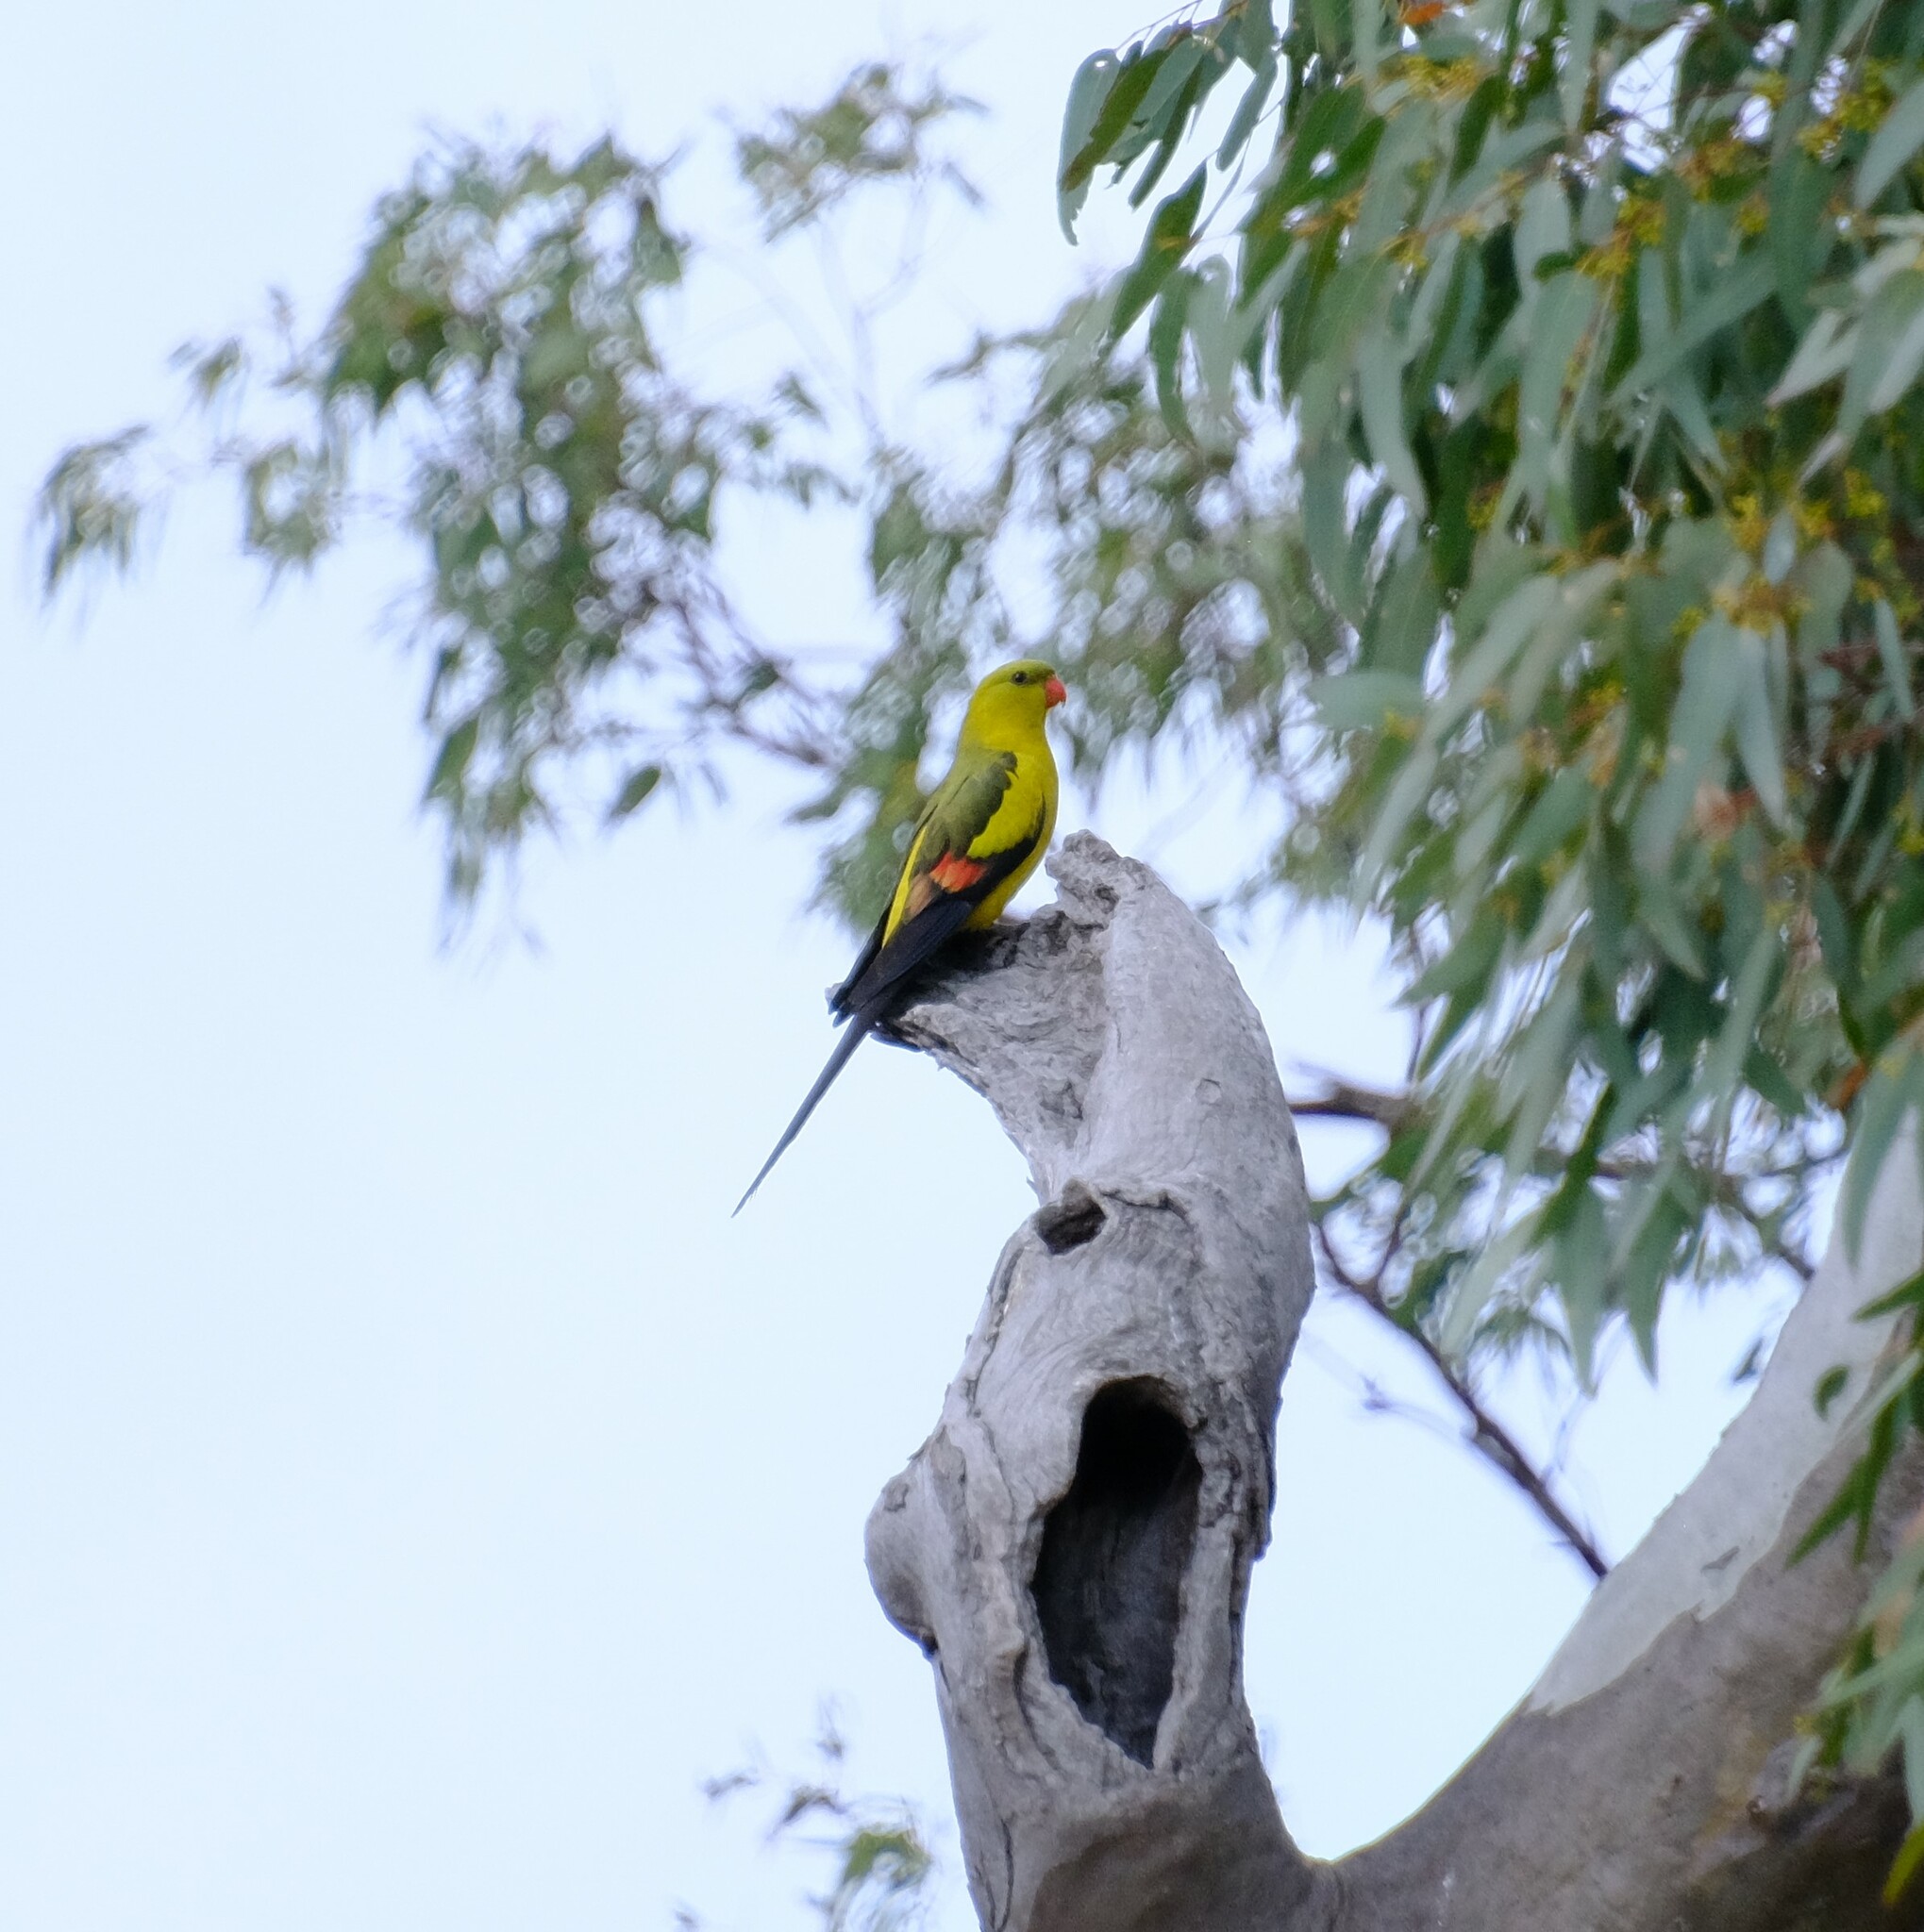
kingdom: Animalia
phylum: Chordata
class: Aves
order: Psittaciformes
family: Psittacidae
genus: Polytelis
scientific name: Polytelis anthopeplus
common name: Regent parrot
